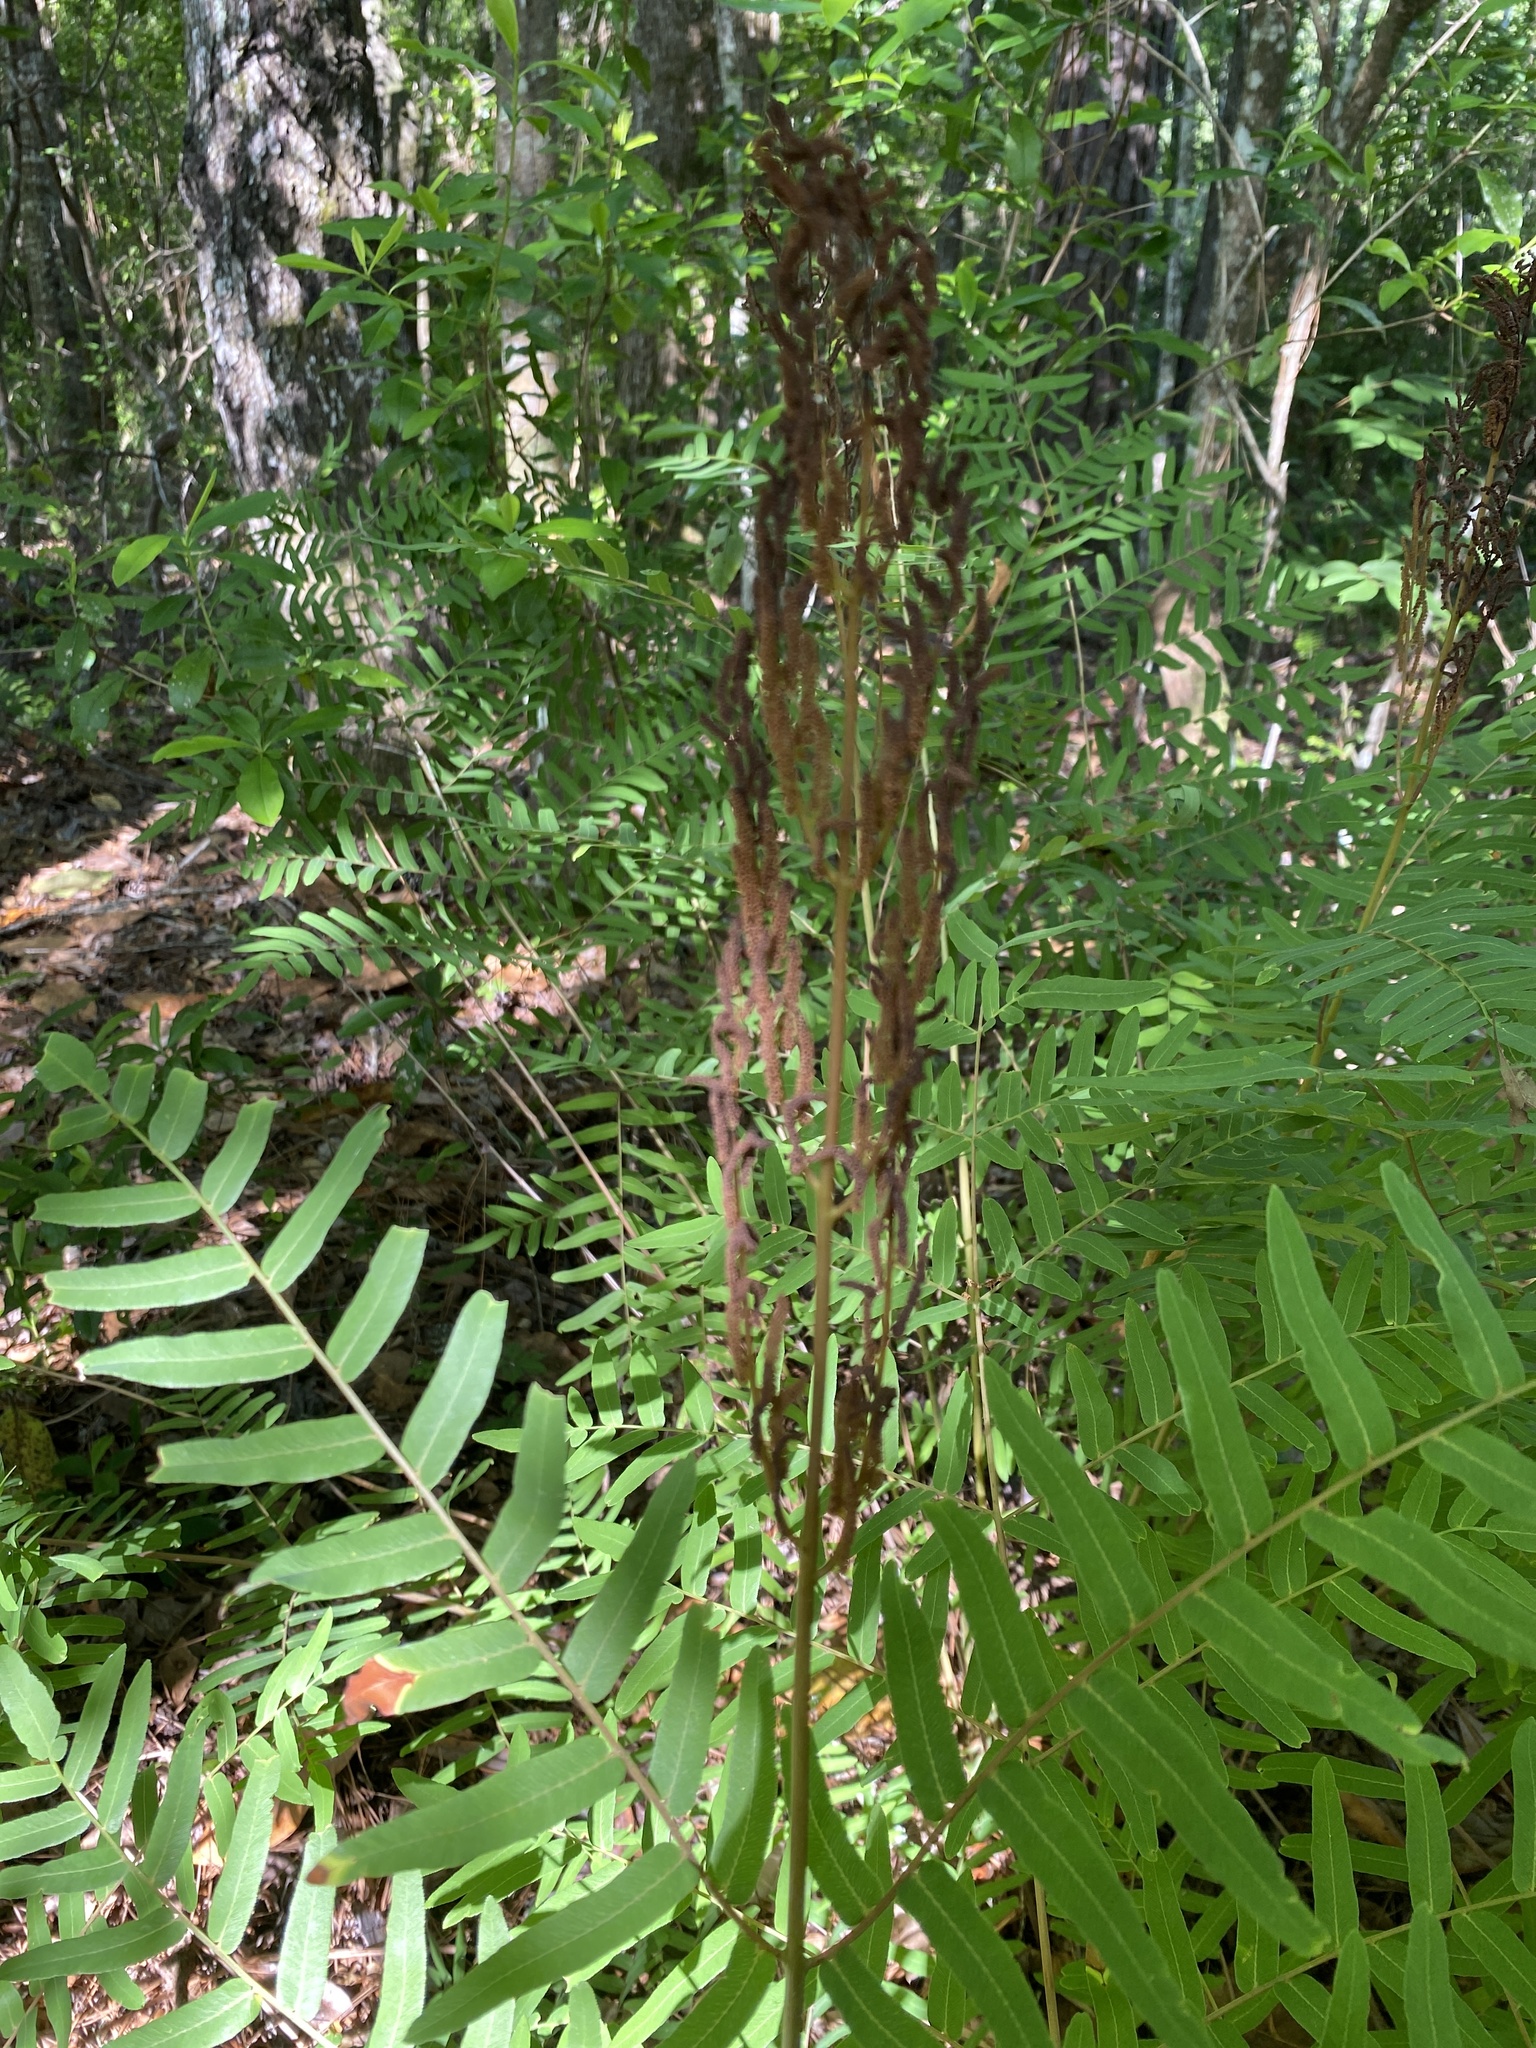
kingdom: Plantae
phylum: Tracheophyta
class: Polypodiopsida
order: Osmundales
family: Osmundaceae
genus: Osmunda
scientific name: Osmunda spectabilis
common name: American royal fern
